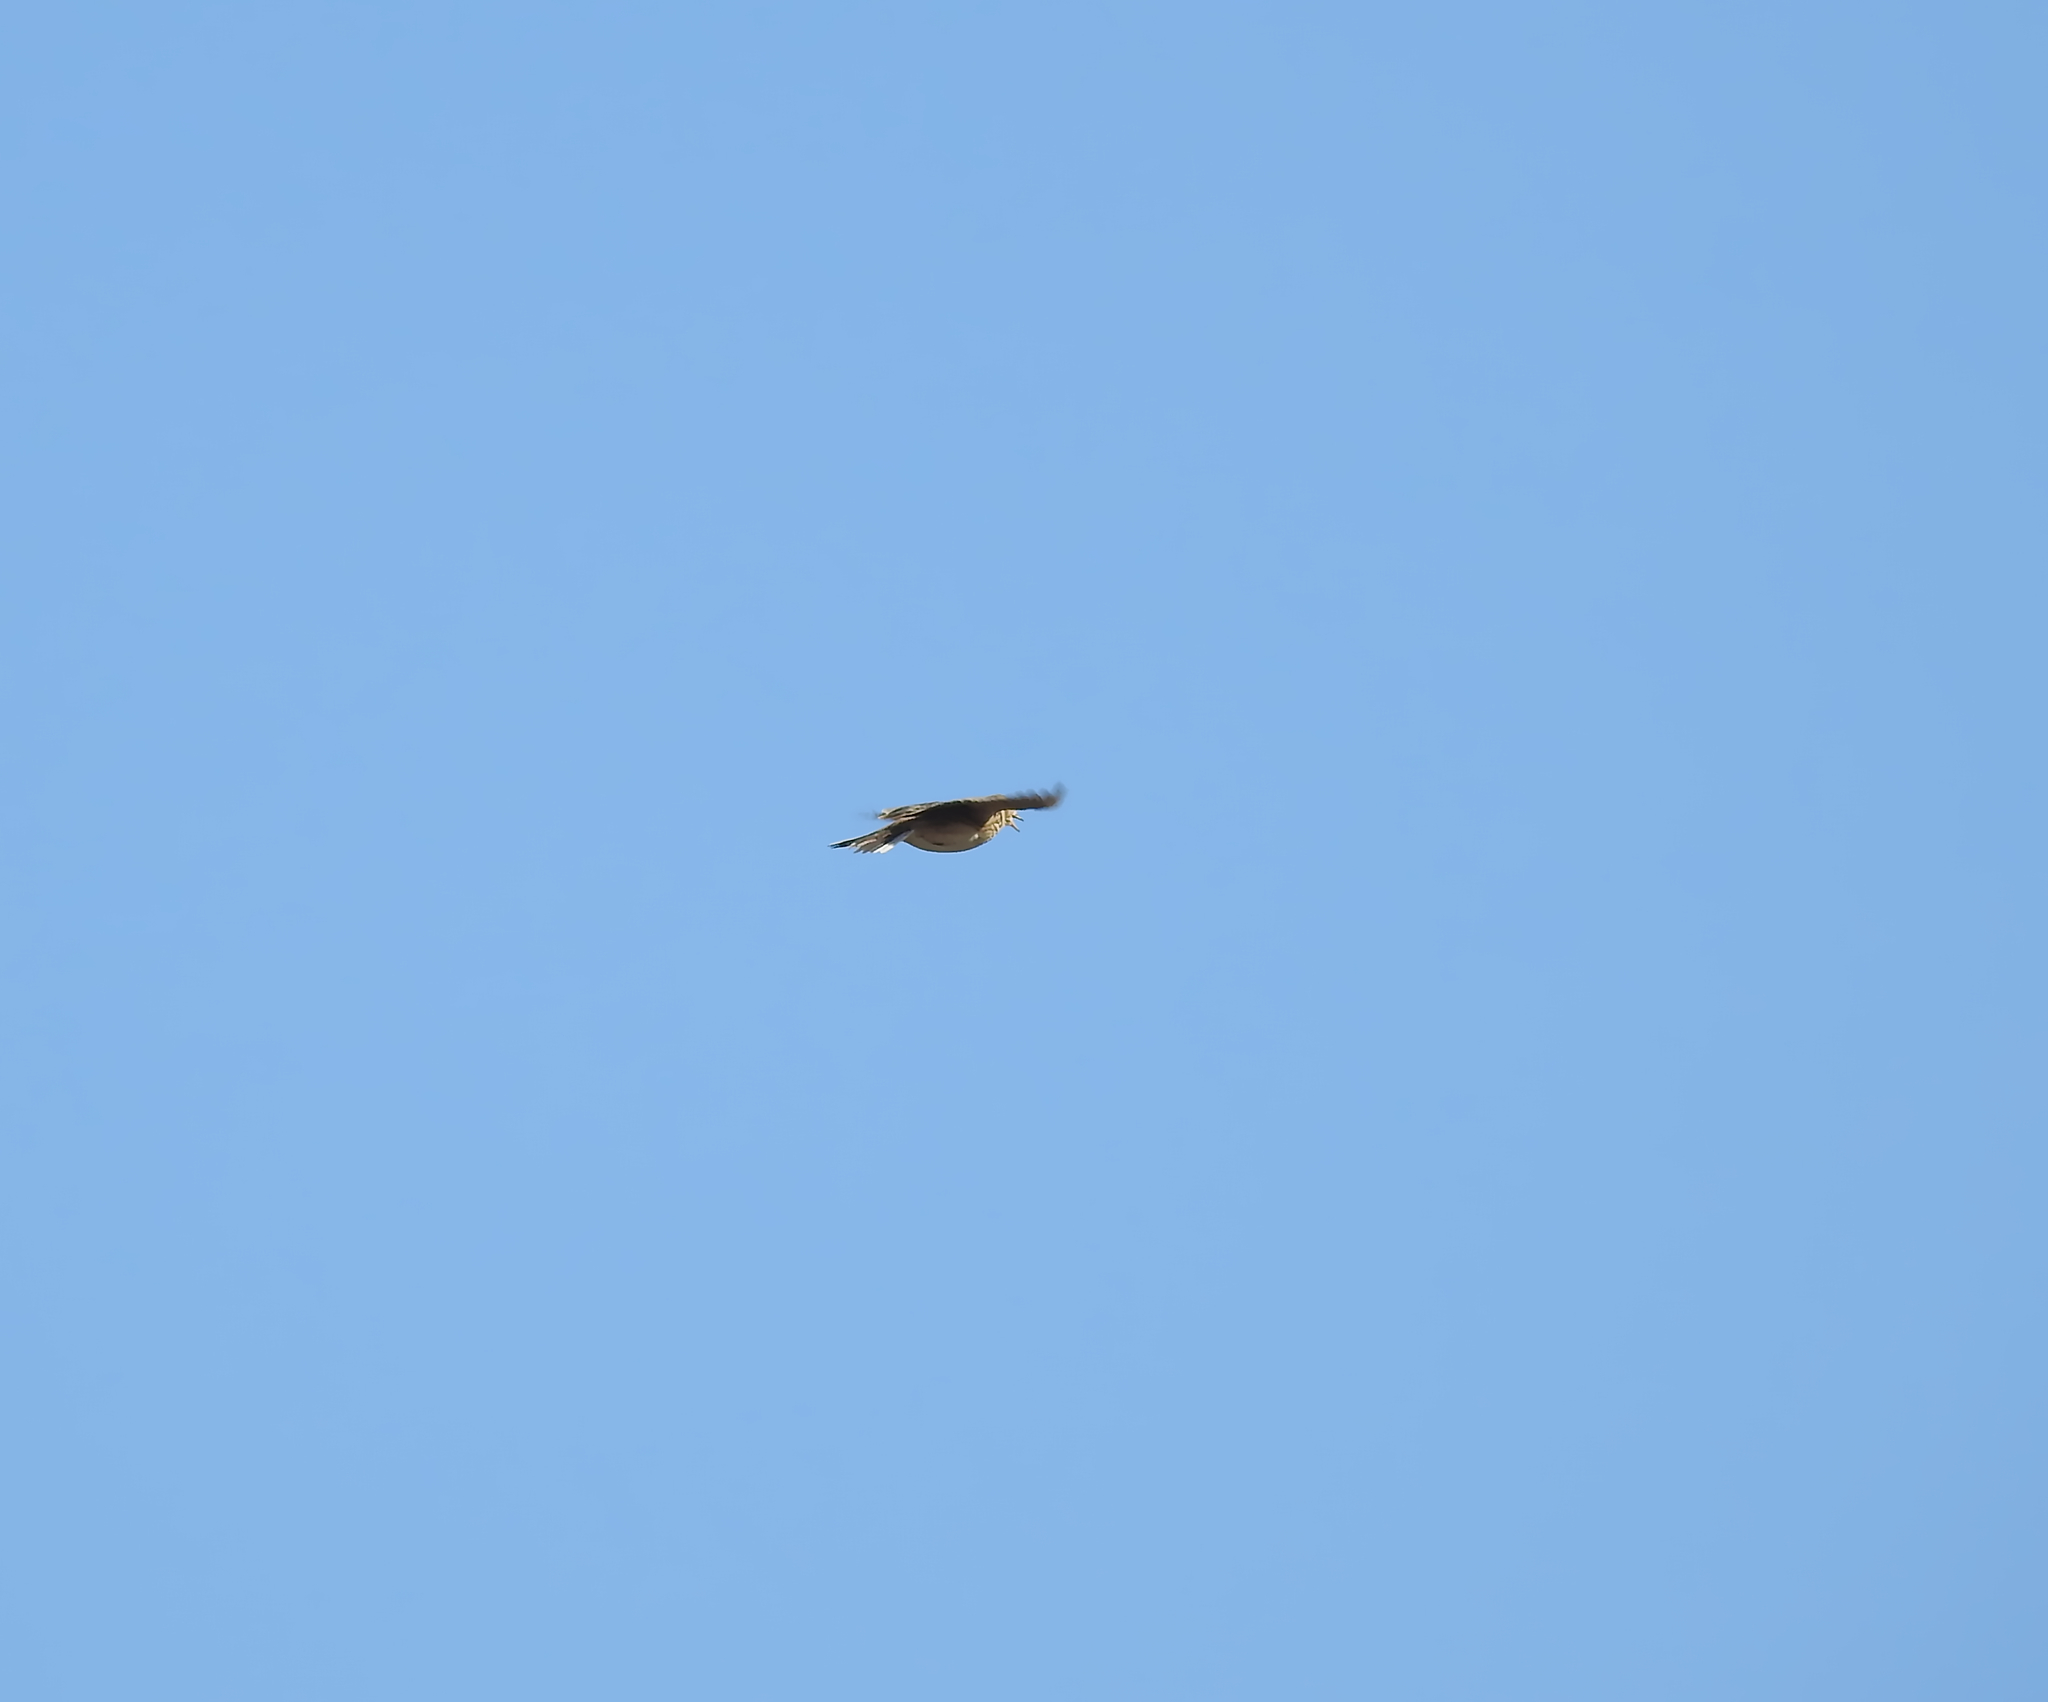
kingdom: Animalia
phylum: Chordata
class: Aves
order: Passeriformes
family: Alaudidae
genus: Alauda
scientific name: Alauda arvensis
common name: Eurasian skylark
